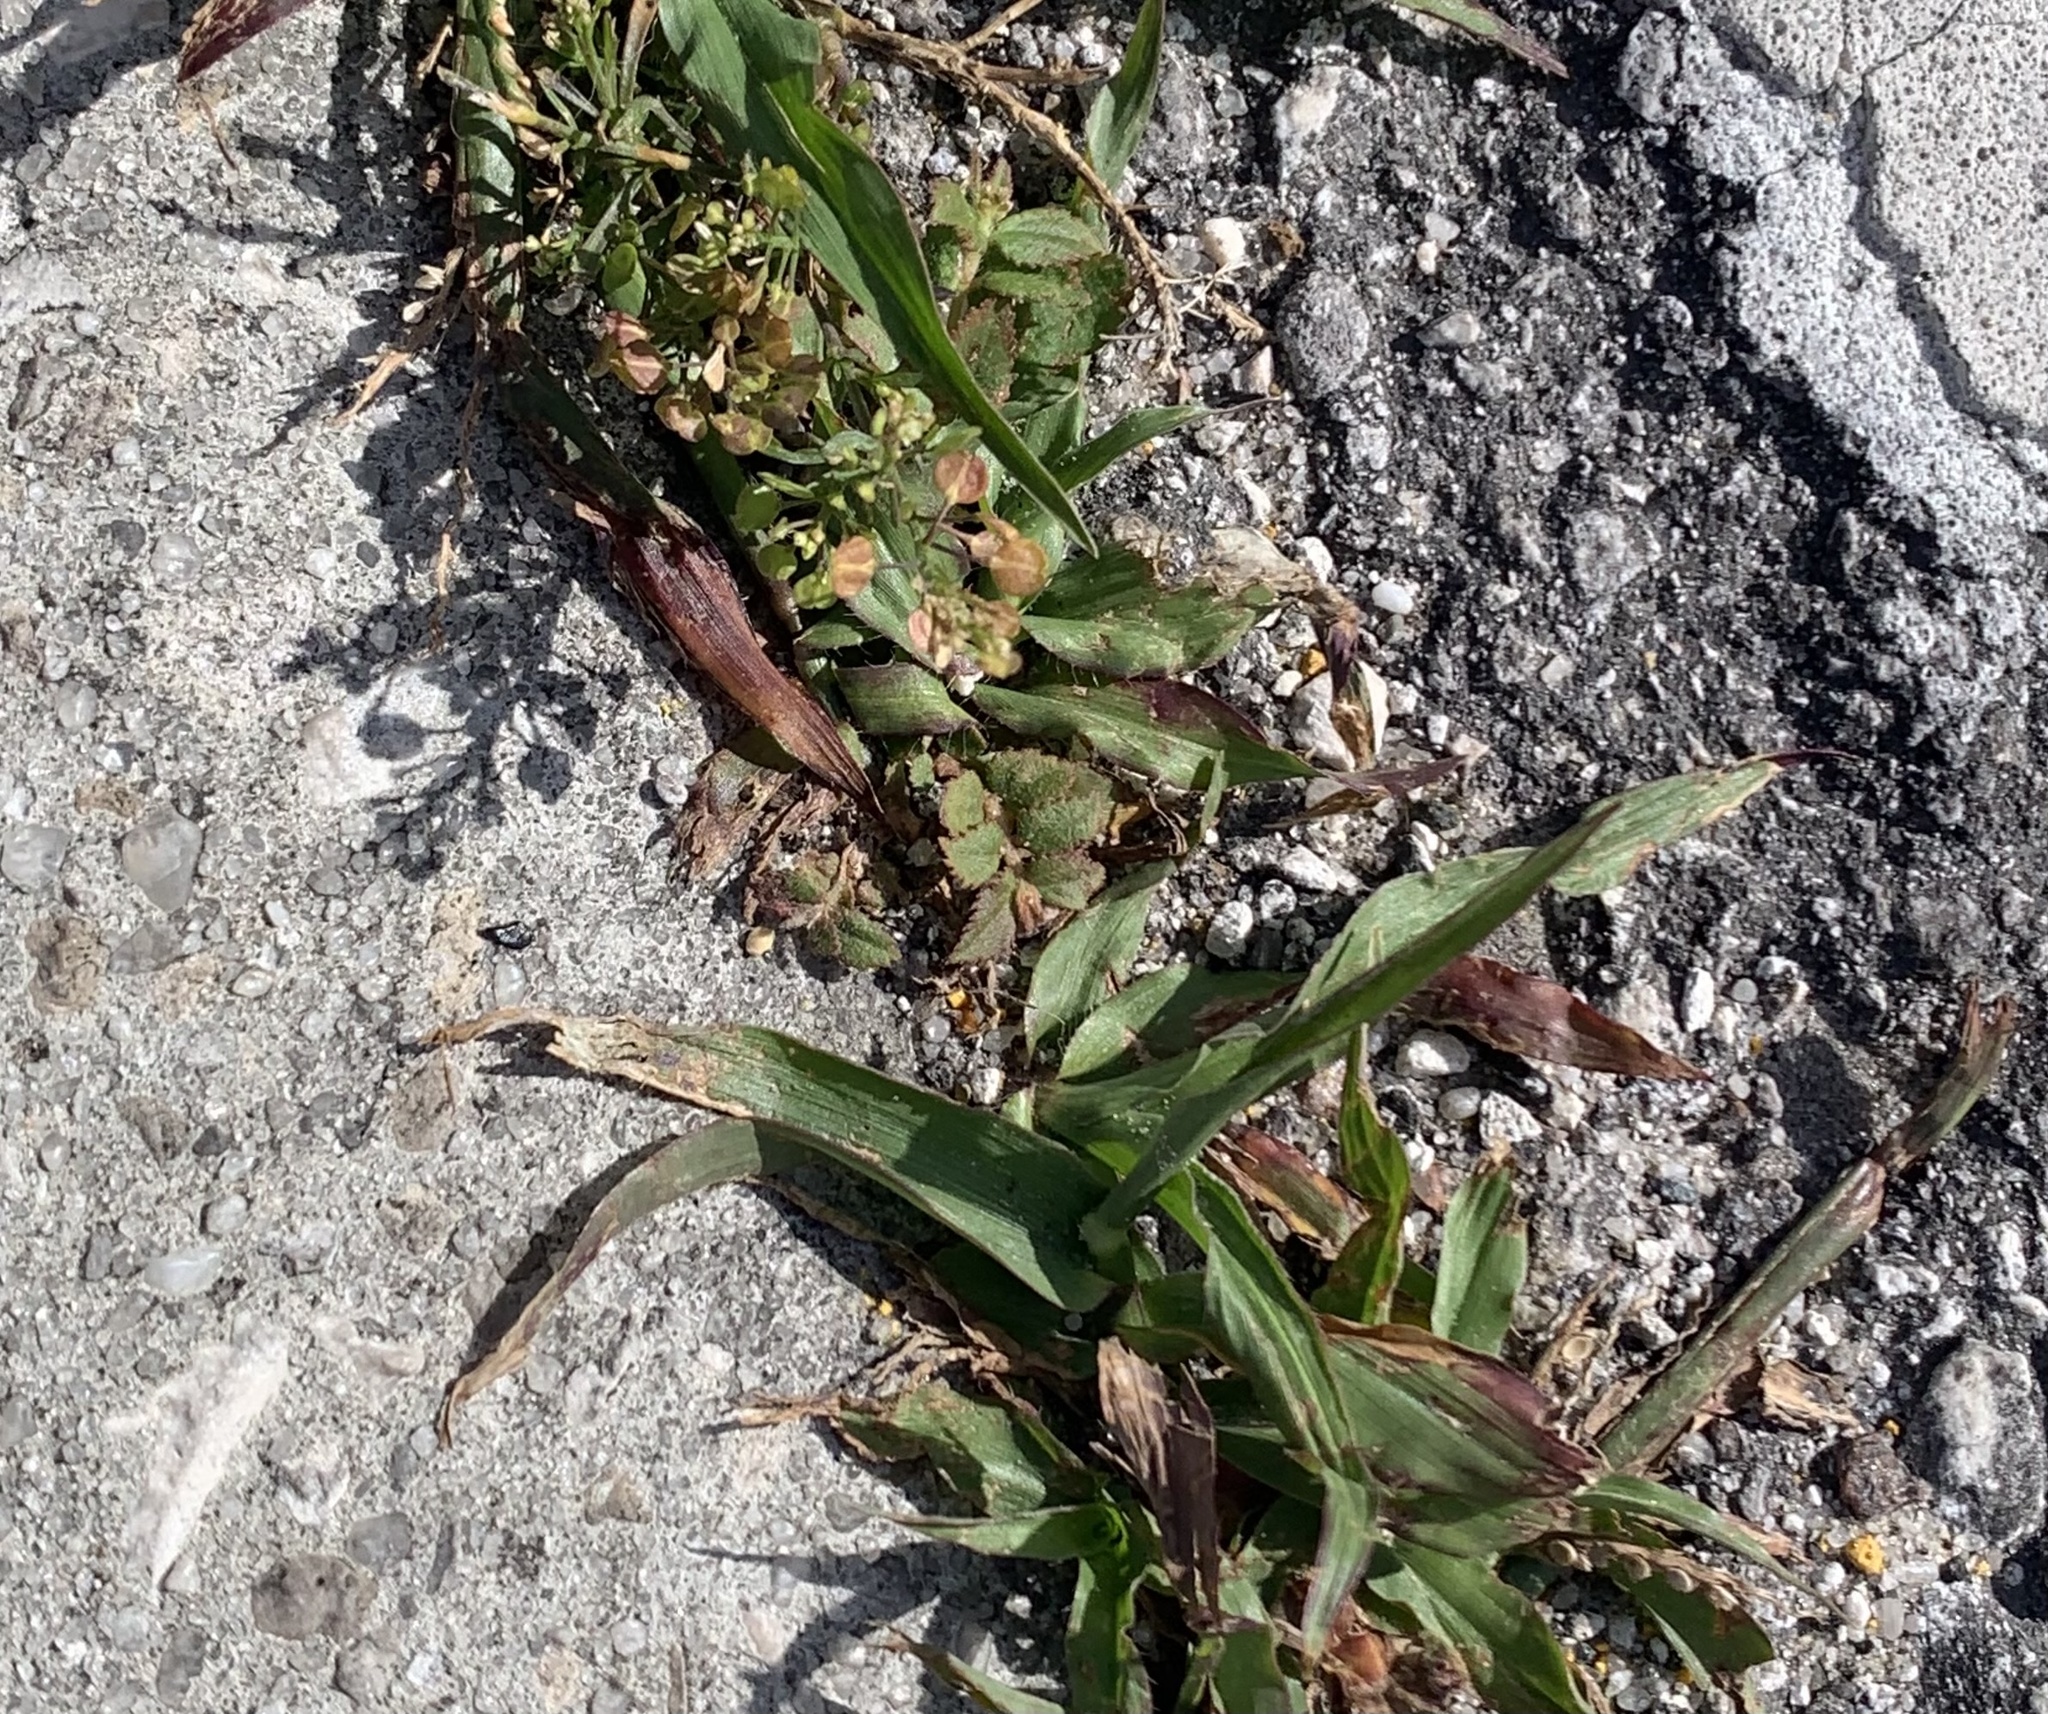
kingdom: Plantae
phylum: Tracheophyta
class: Magnoliopsida
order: Malpighiales
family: Euphorbiaceae
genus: Euphorbia
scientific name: Euphorbia ophthalmica
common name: Florida hammock sandmat
